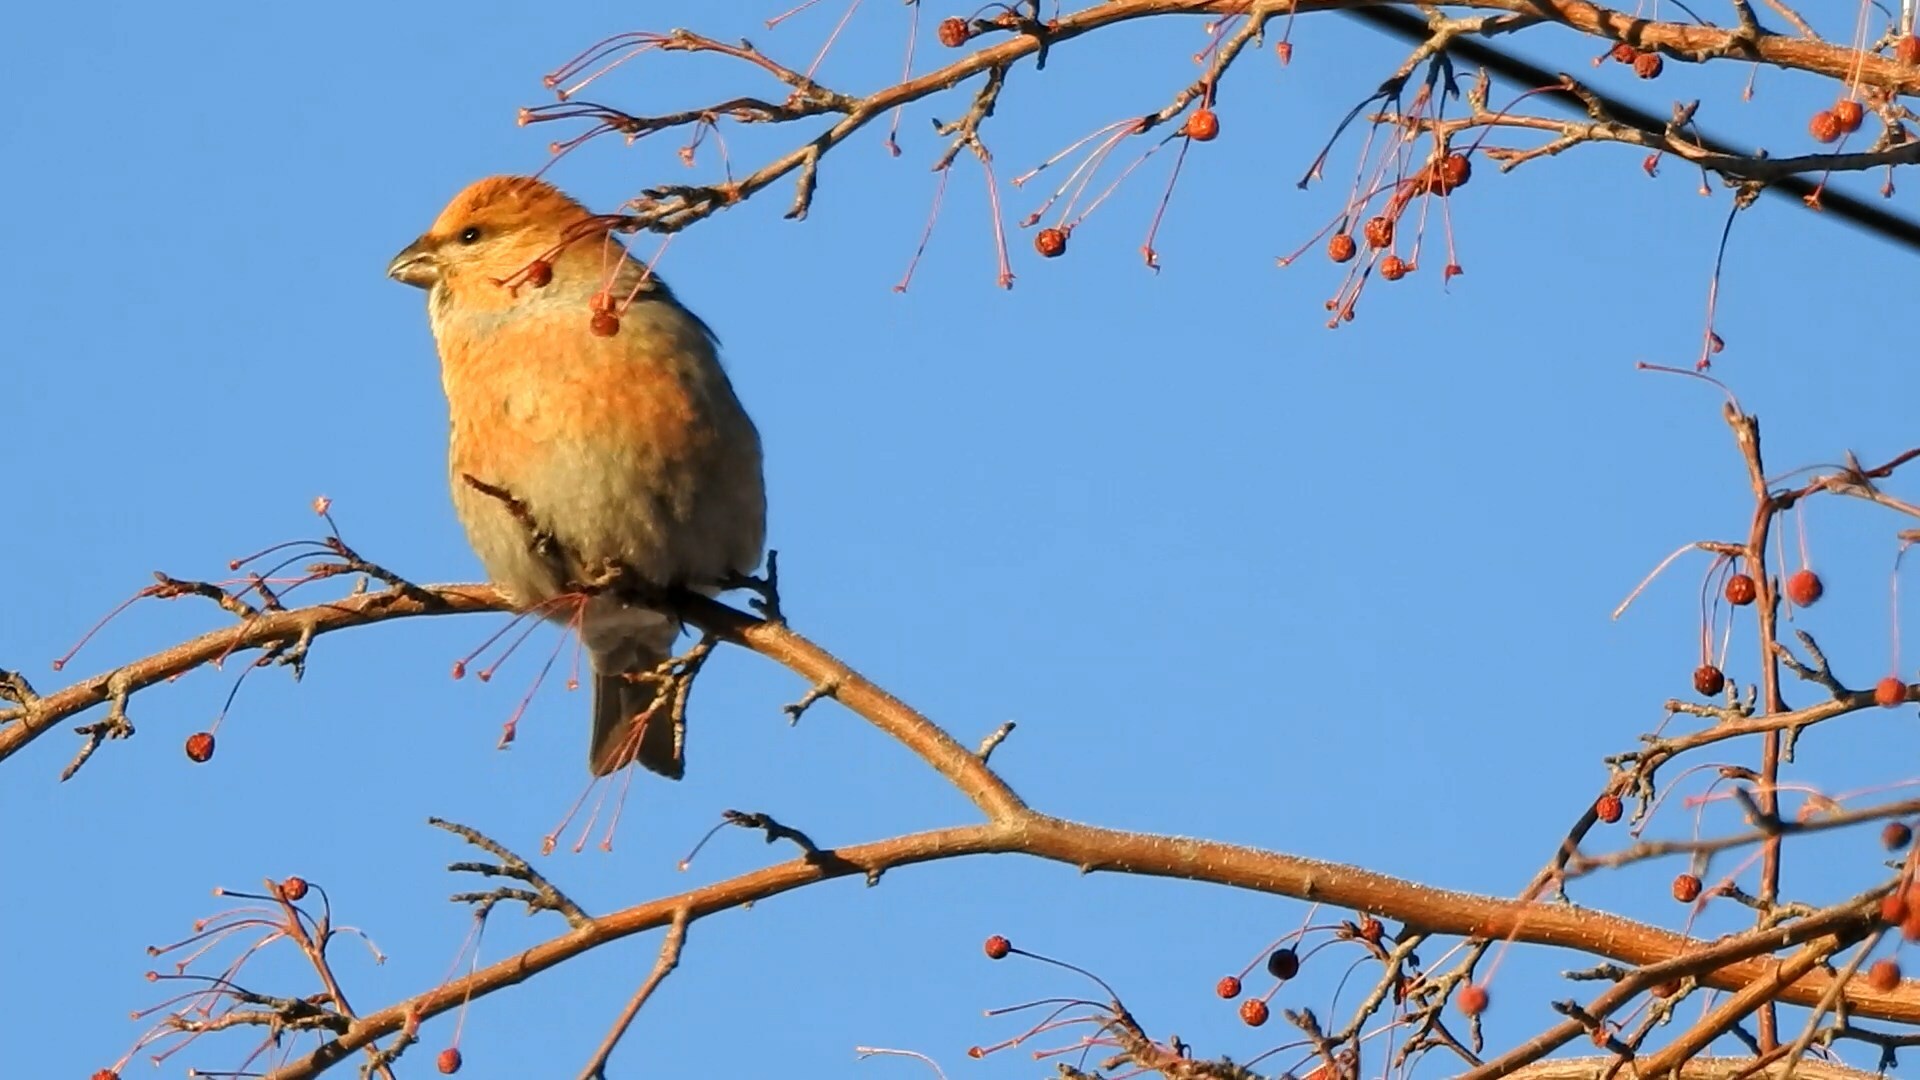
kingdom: Animalia
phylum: Chordata
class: Aves
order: Passeriformes
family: Fringillidae
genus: Pinicola
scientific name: Pinicola enucleator
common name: Pine grosbeak
